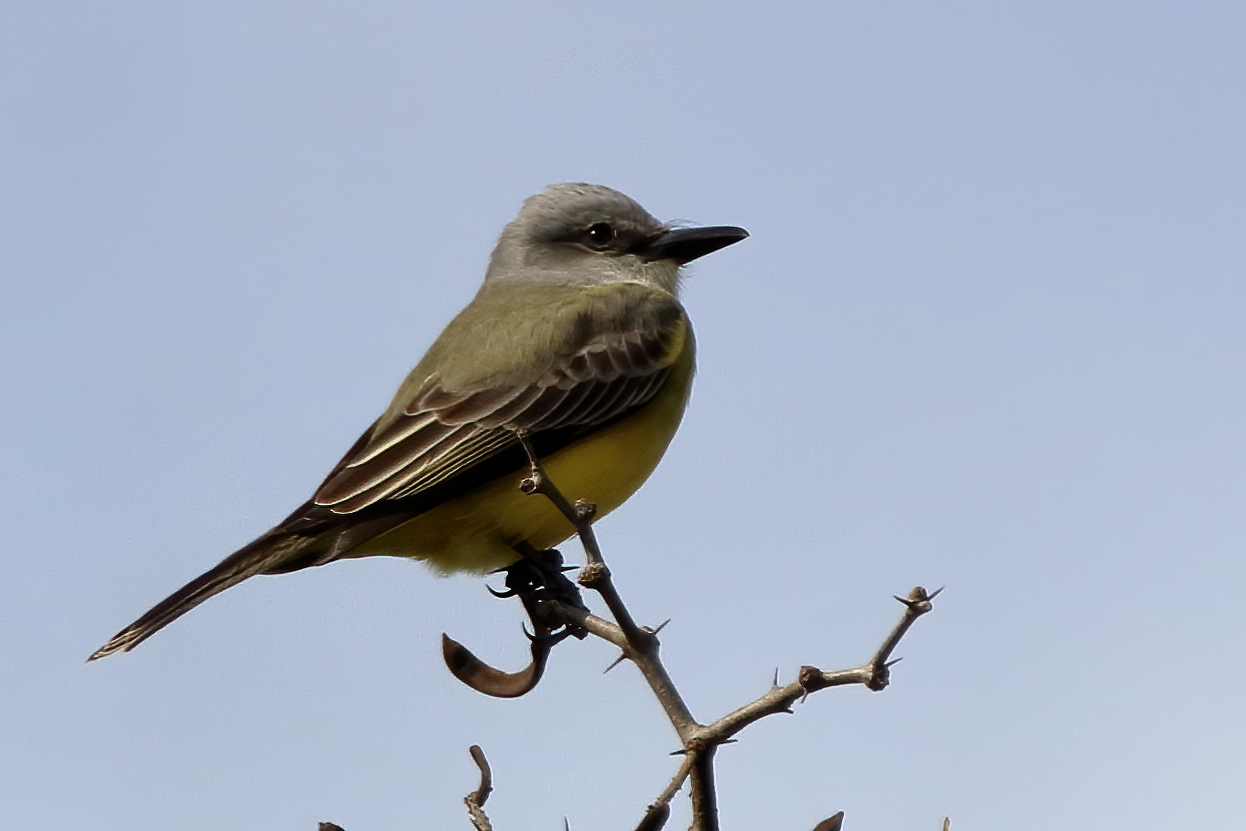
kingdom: Animalia
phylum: Chordata
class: Aves
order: Passeriformes
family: Tyrannidae
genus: Tyrannus
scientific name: Tyrannus
